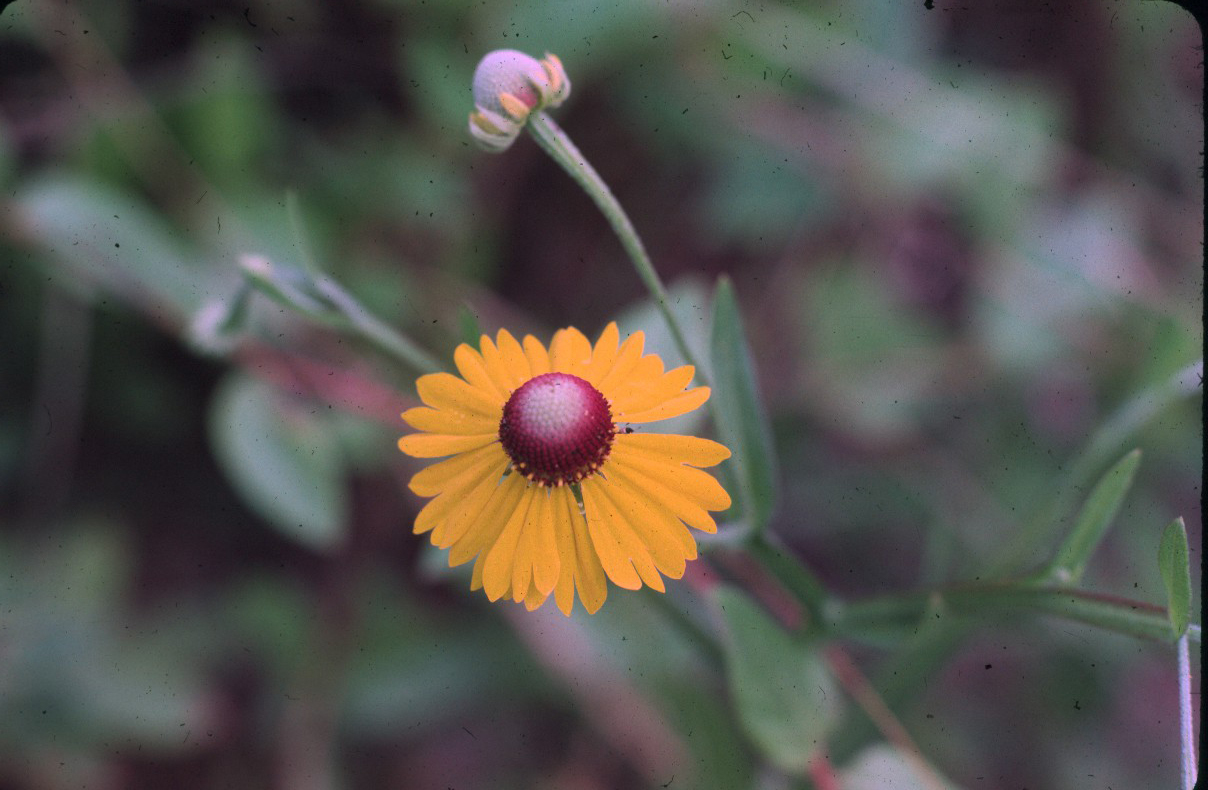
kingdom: Plantae
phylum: Tracheophyta
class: Magnoliopsida
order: Asterales
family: Asteraceae
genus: Helenium
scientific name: Helenium flexuosum
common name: Naked-flowered sneezeweed
